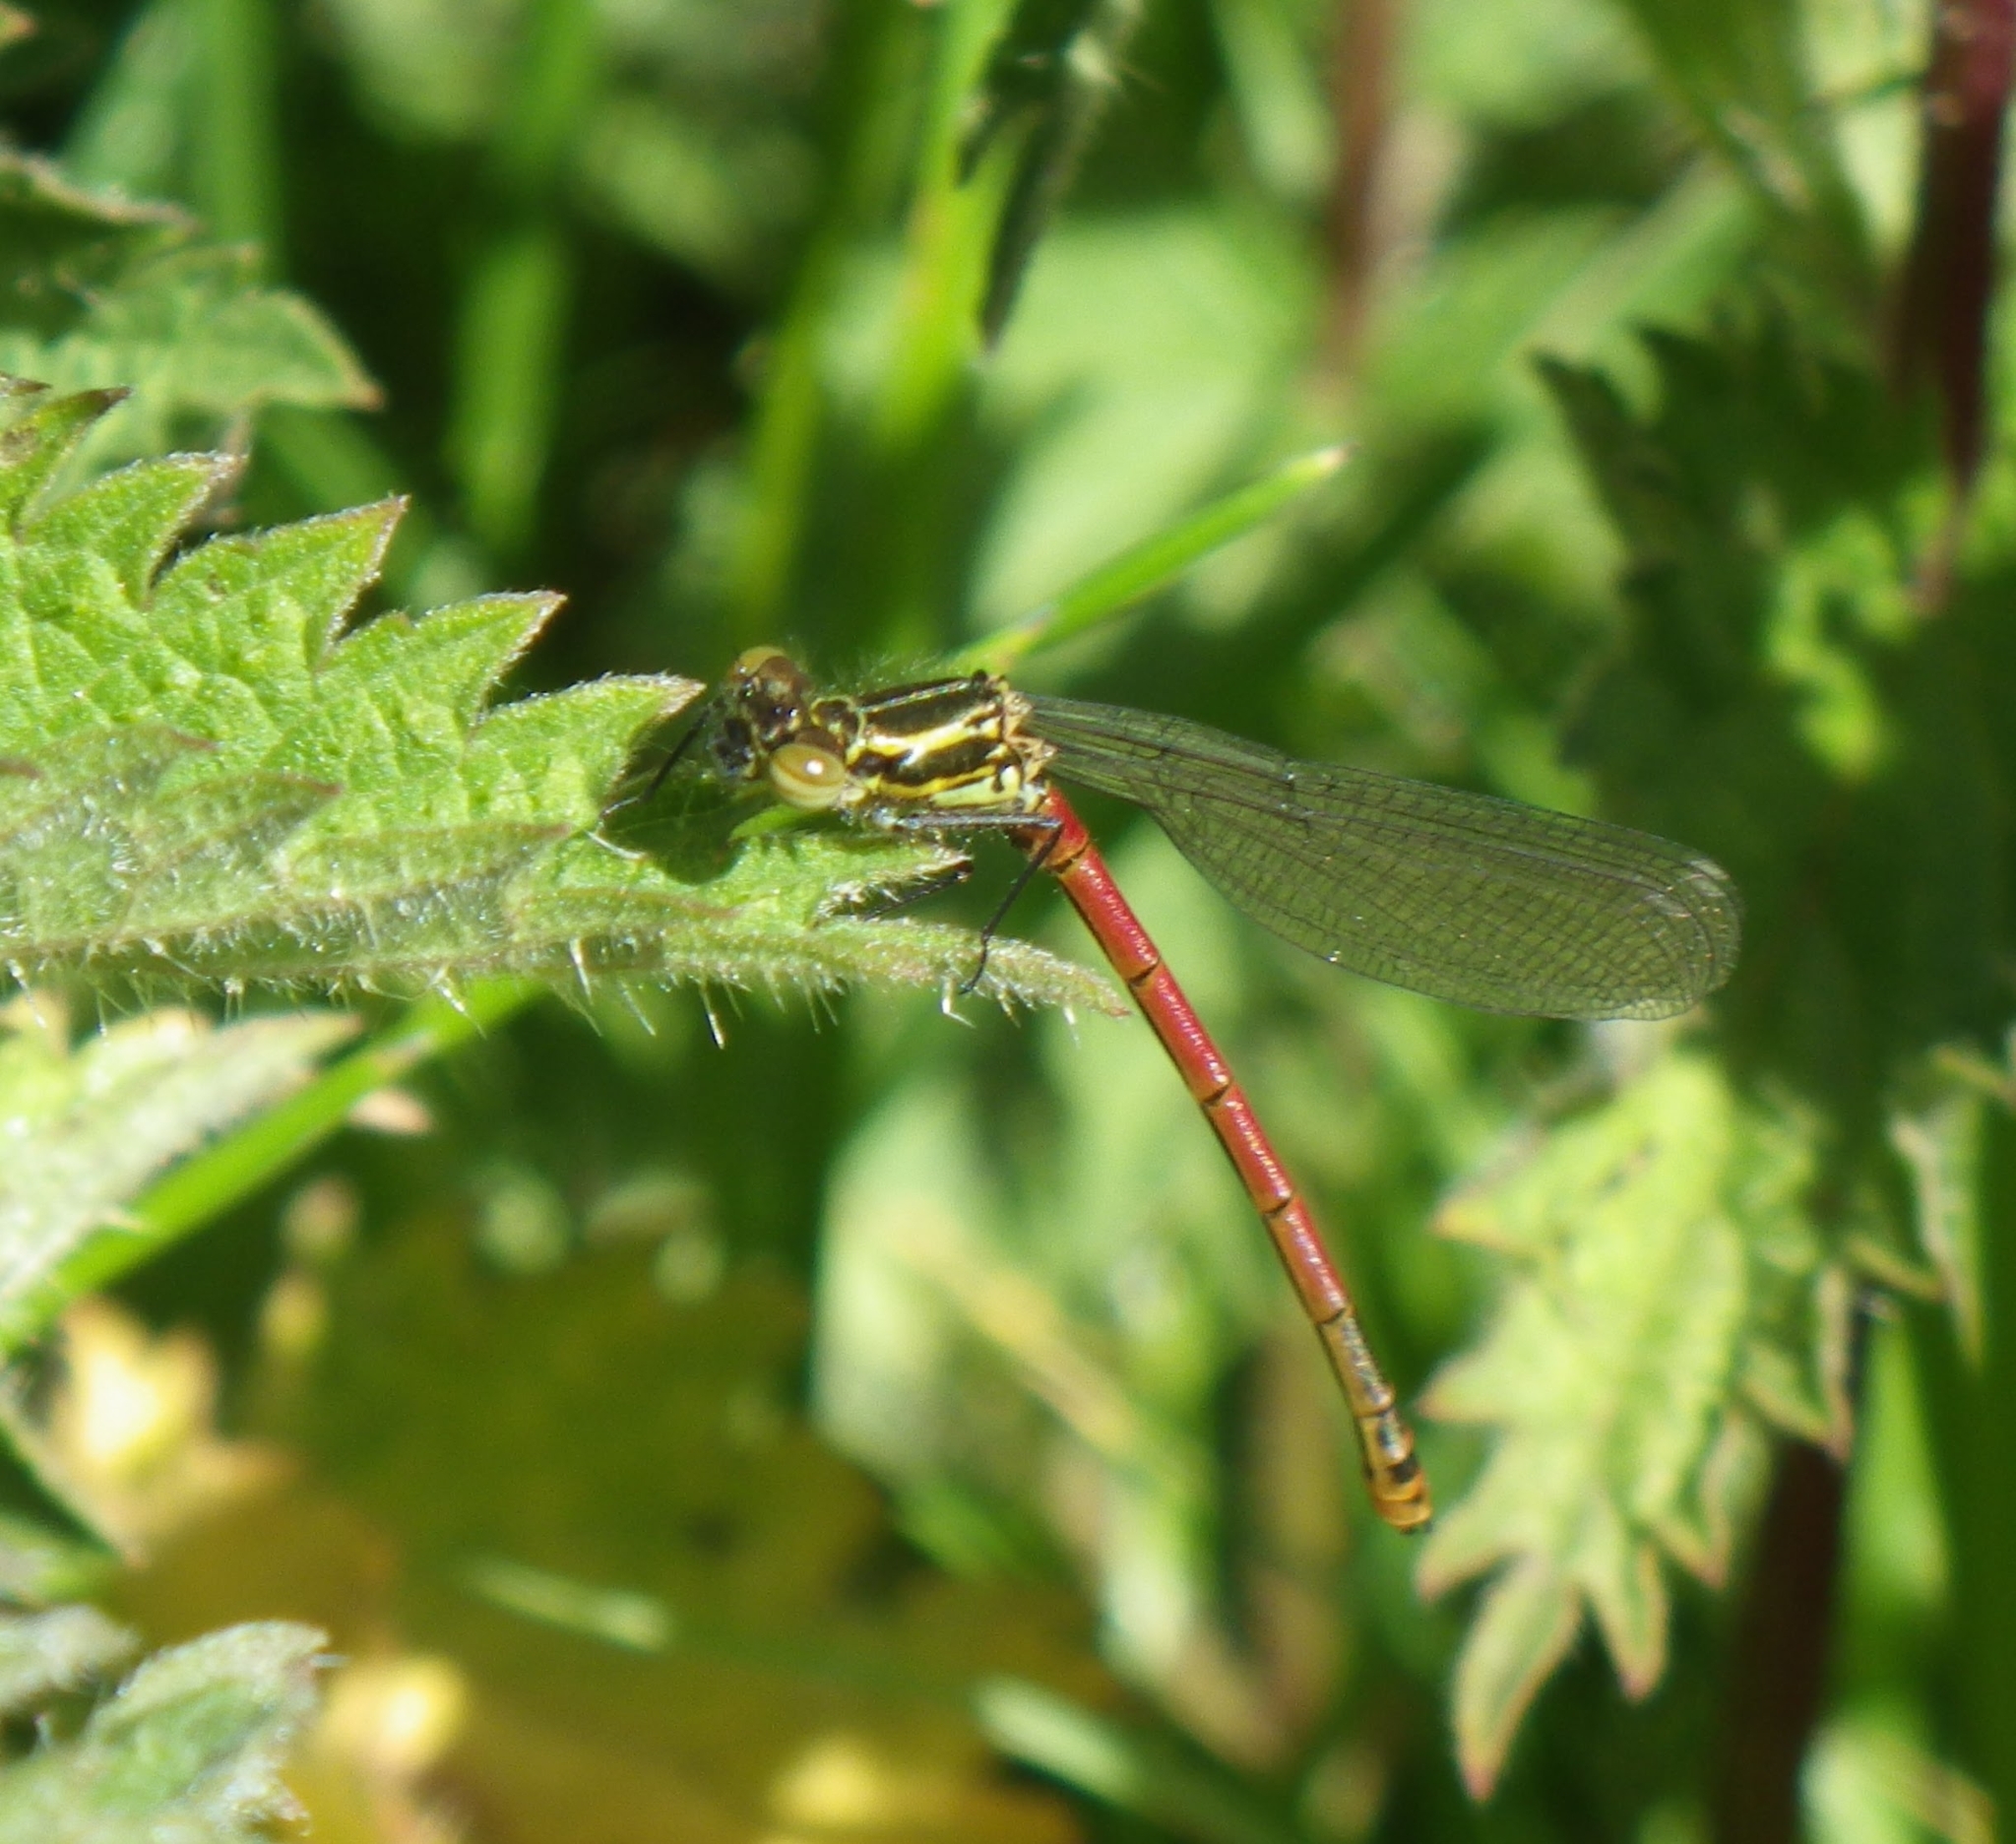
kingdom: Animalia
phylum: Arthropoda
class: Insecta
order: Odonata
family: Coenagrionidae
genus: Pyrrhosoma
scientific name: Pyrrhosoma nymphula
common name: Large red damsel
